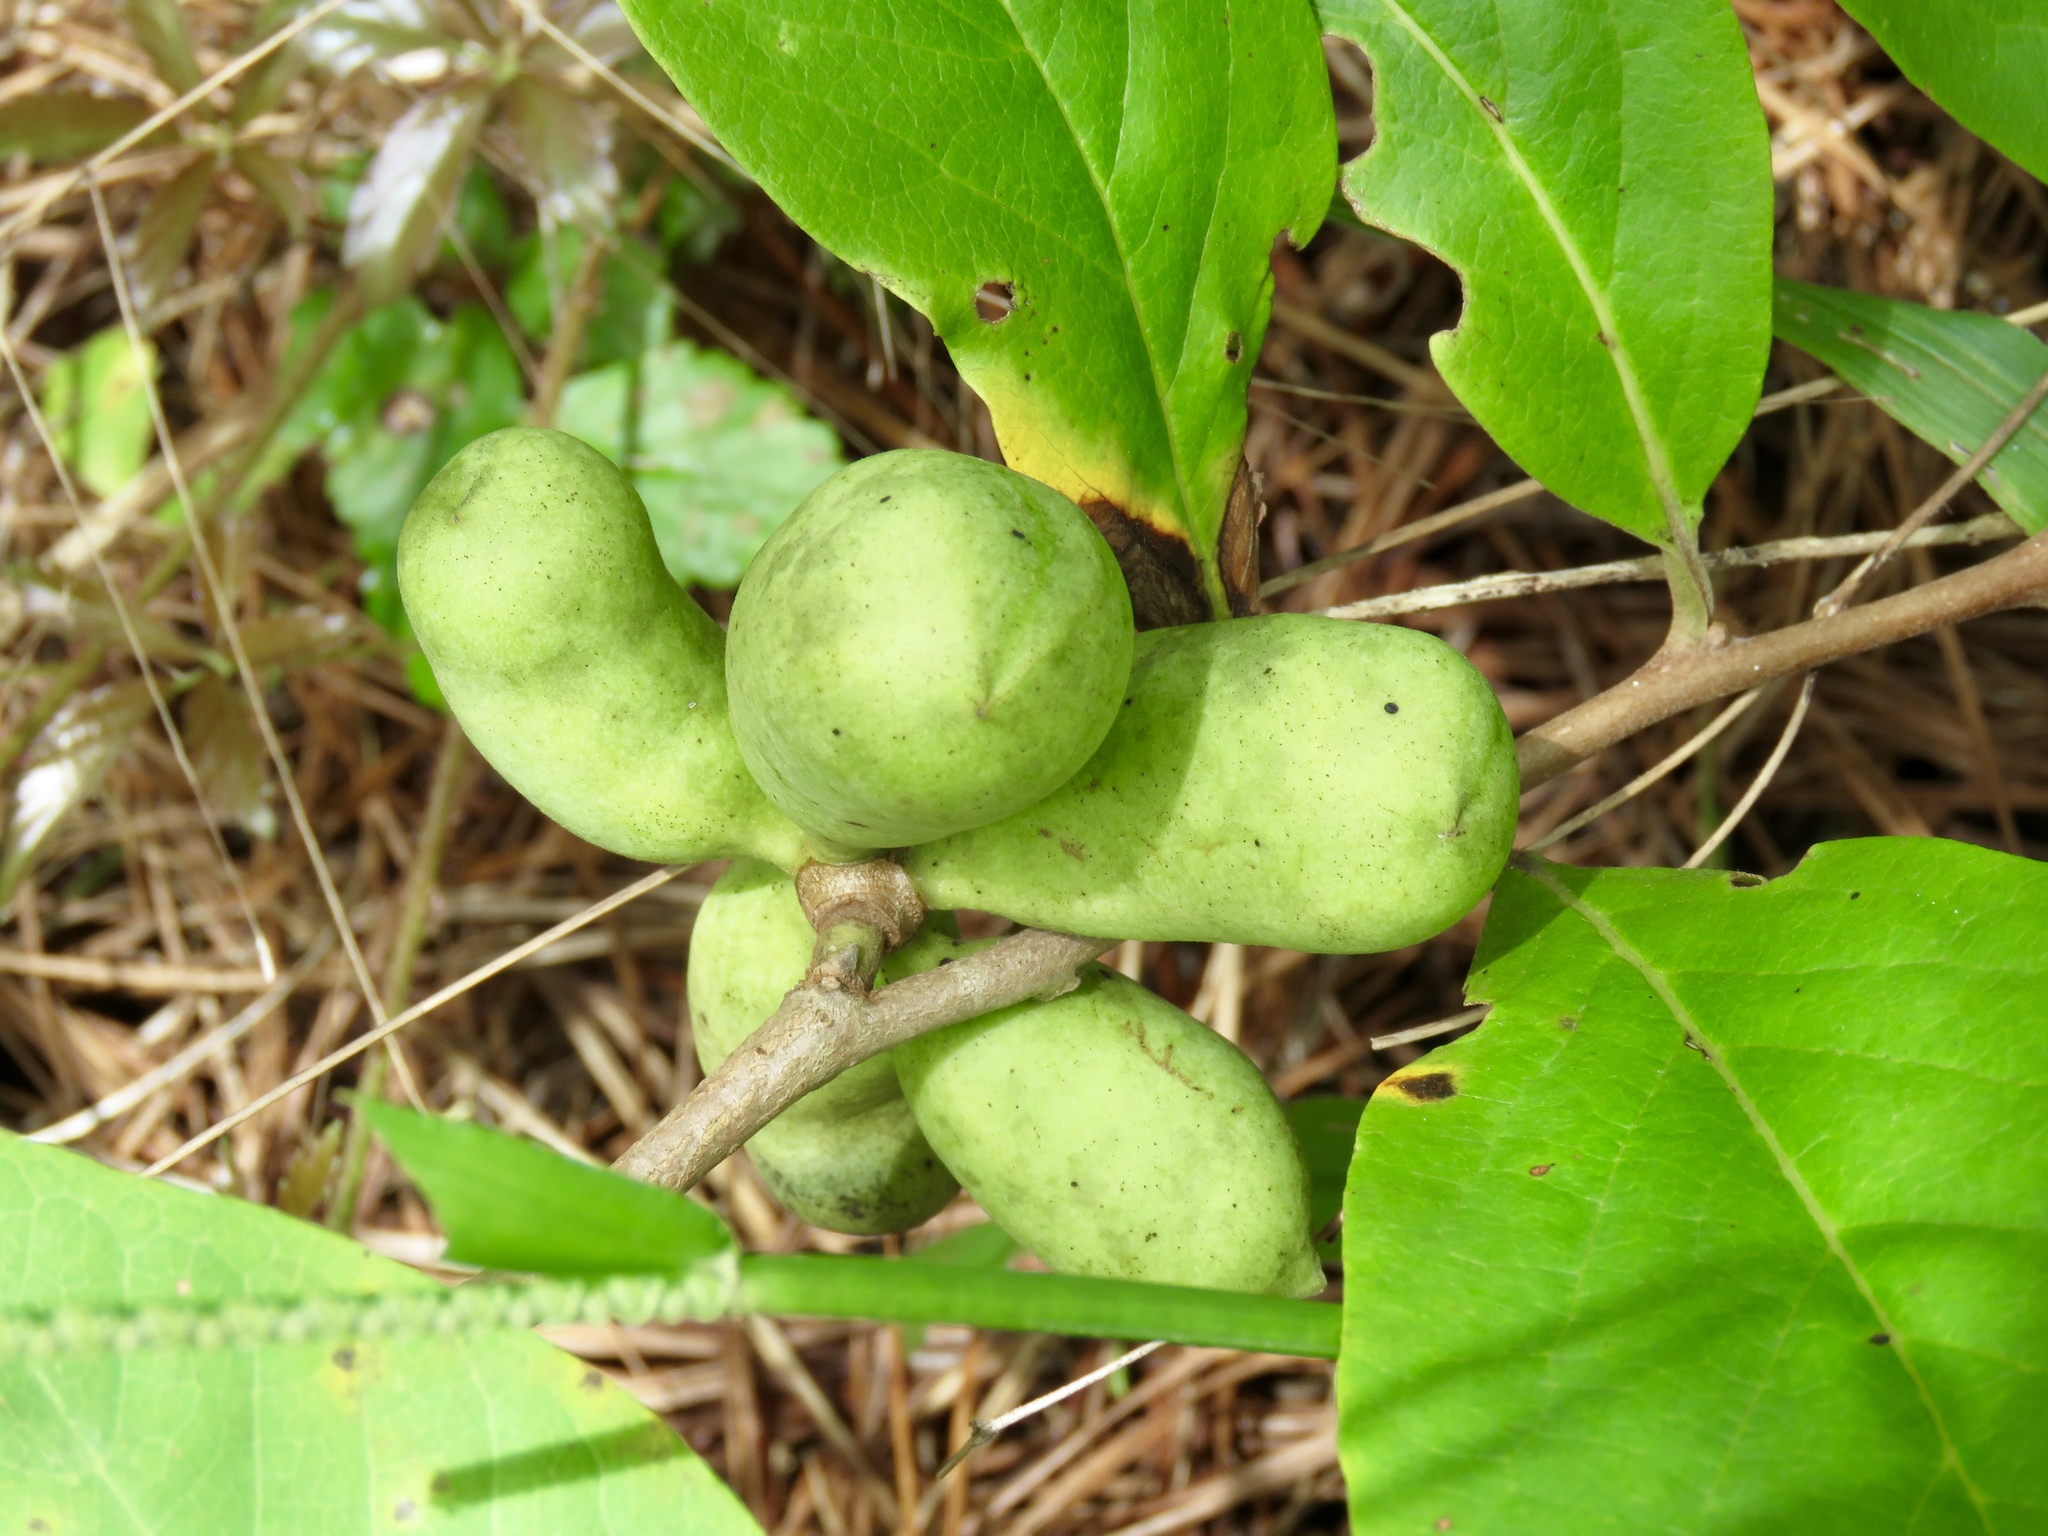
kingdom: Plantae
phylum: Tracheophyta
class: Magnoliopsida
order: Magnoliales
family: Annonaceae
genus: Asimina
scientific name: Asimina parviflora
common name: Dwarf pawpaw
